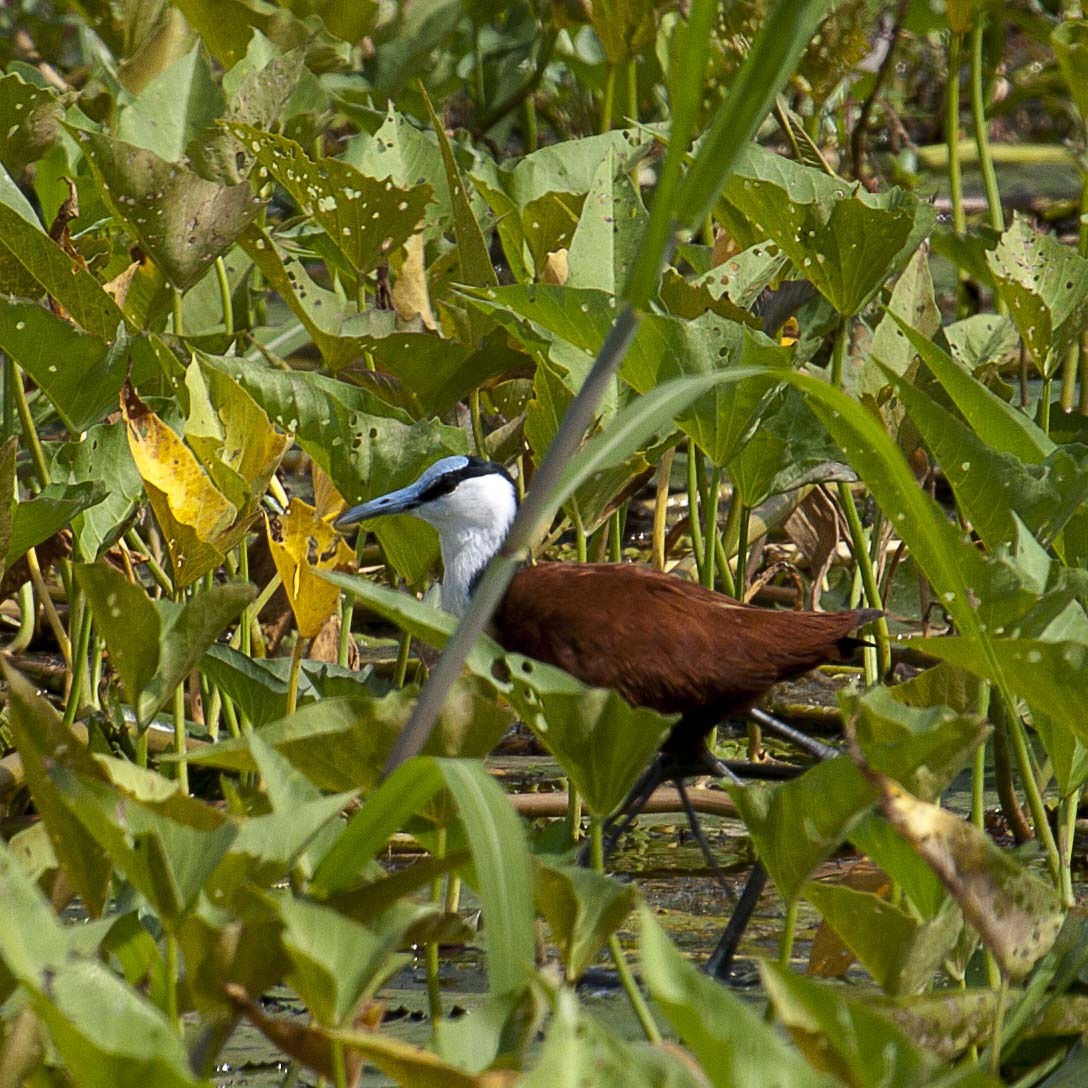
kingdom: Animalia
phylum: Chordata
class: Aves
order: Charadriiformes
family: Jacanidae
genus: Actophilornis
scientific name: Actophilornis africanus
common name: African jacana
